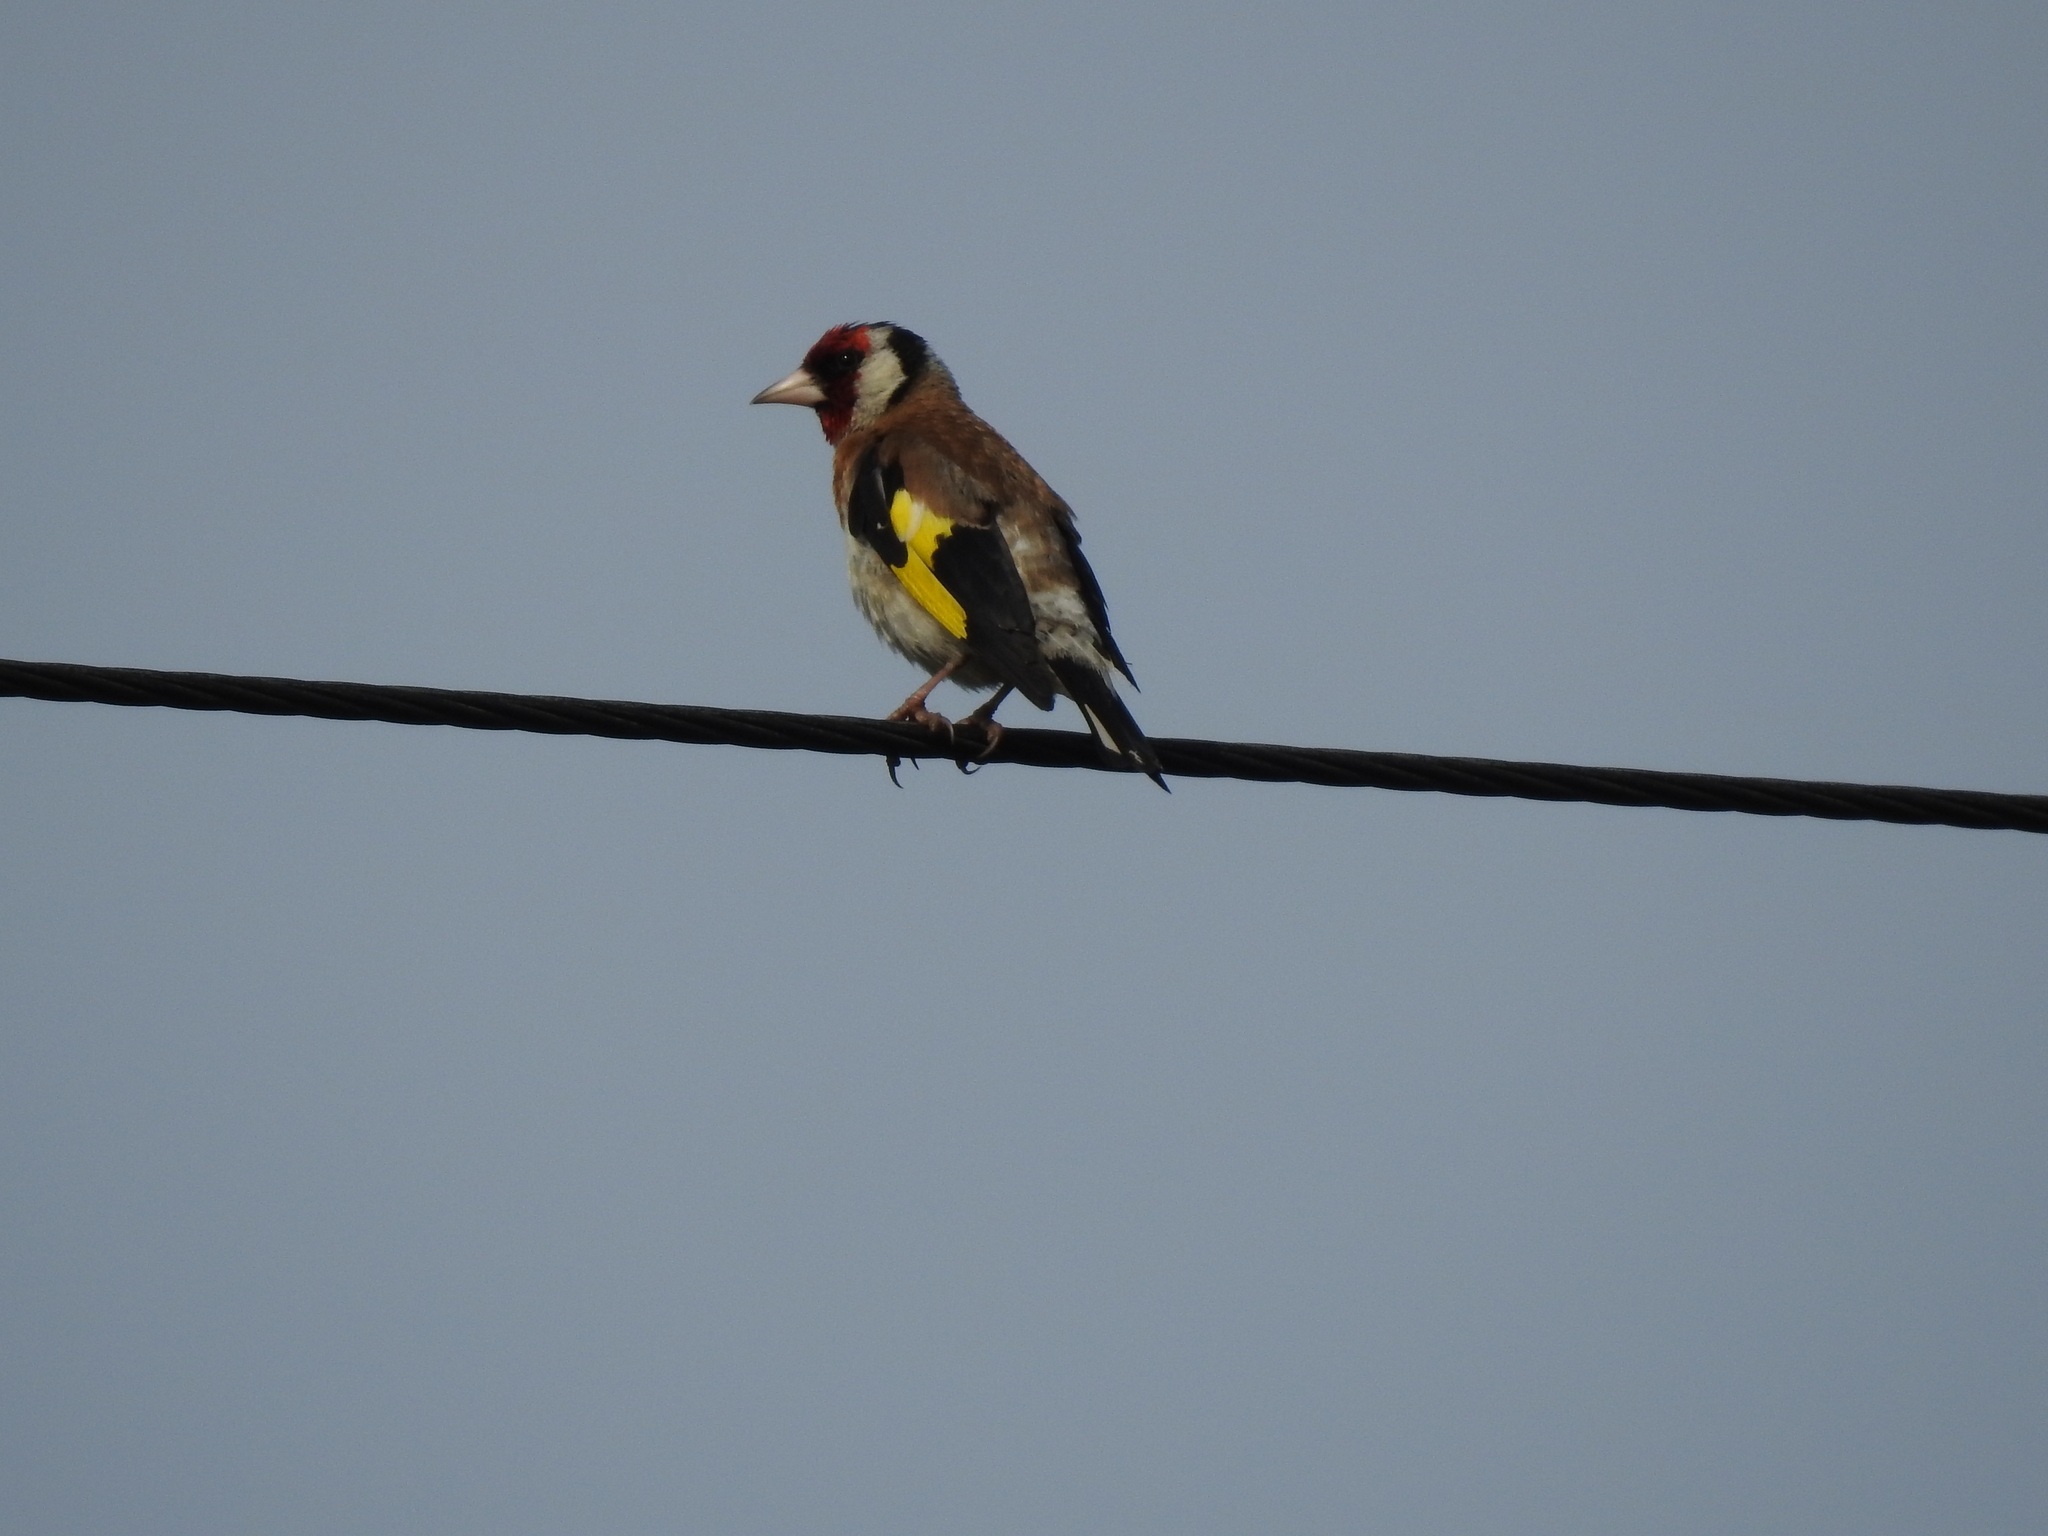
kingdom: Animalia
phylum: Chordata
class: Aves
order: Passeriformes
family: Fringillidae
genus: Carduelis
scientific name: Carduelis carduelis
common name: European goldfinch
